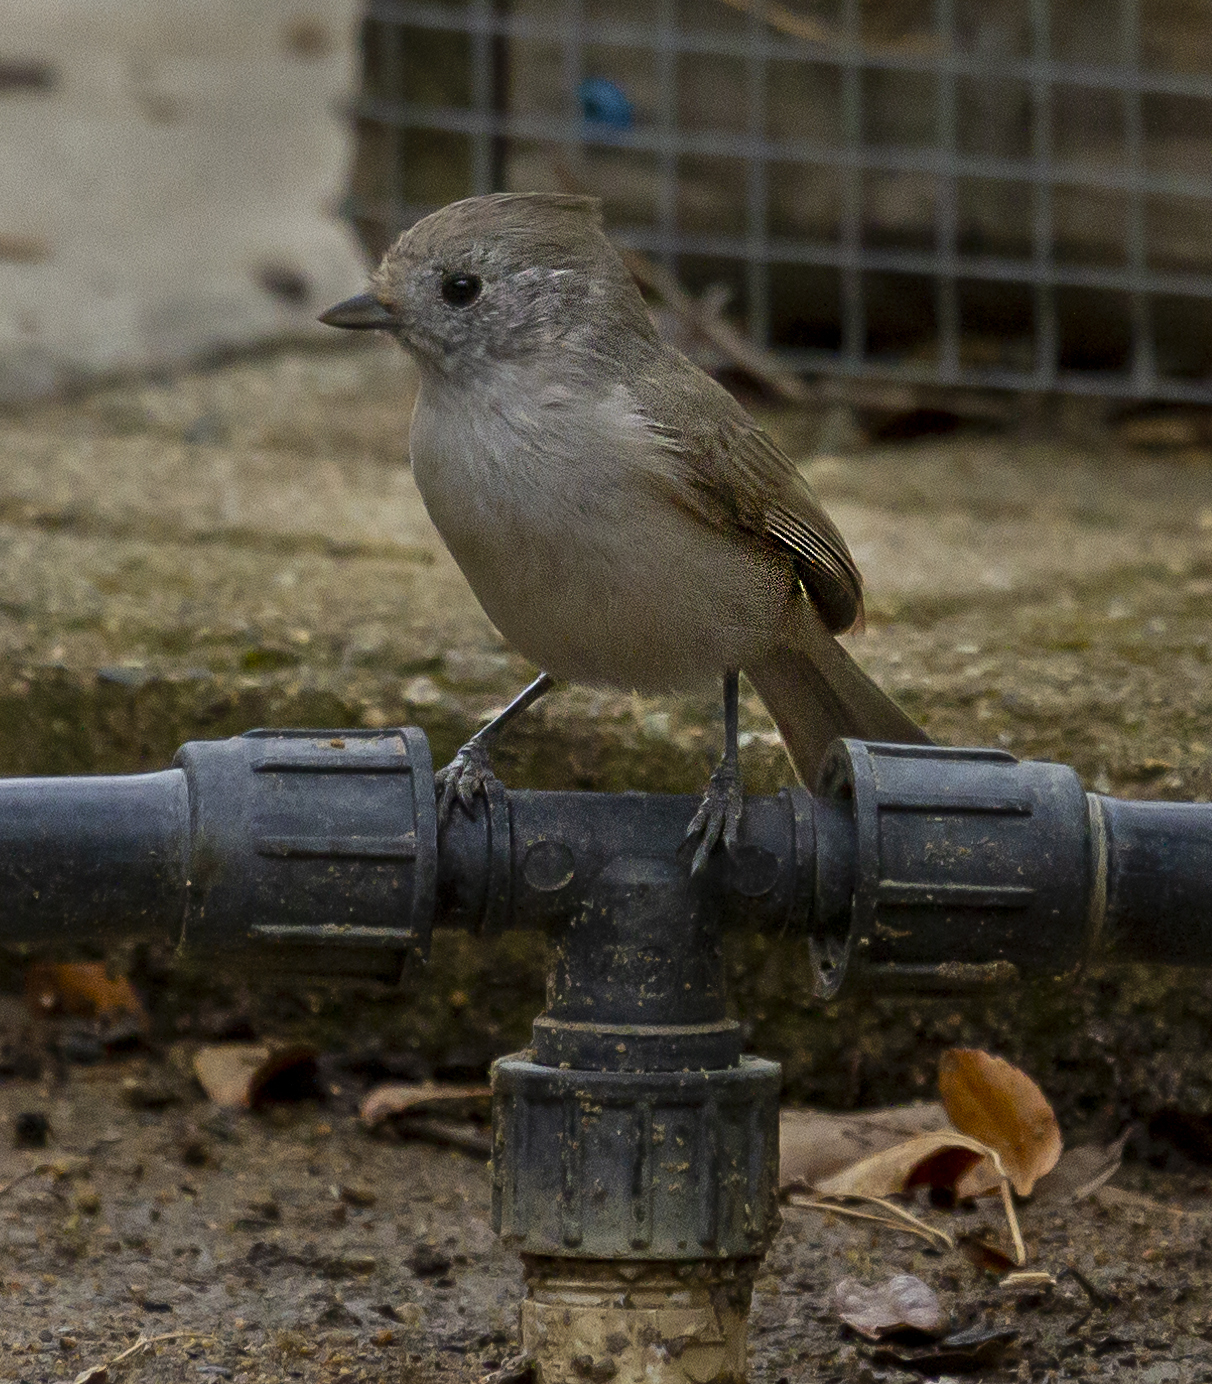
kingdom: Animalia
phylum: Chordata
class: Aves
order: Passeriformes
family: Paridae
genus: Baeolophus
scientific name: Baeolophus inornatus
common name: Oak titmouse
